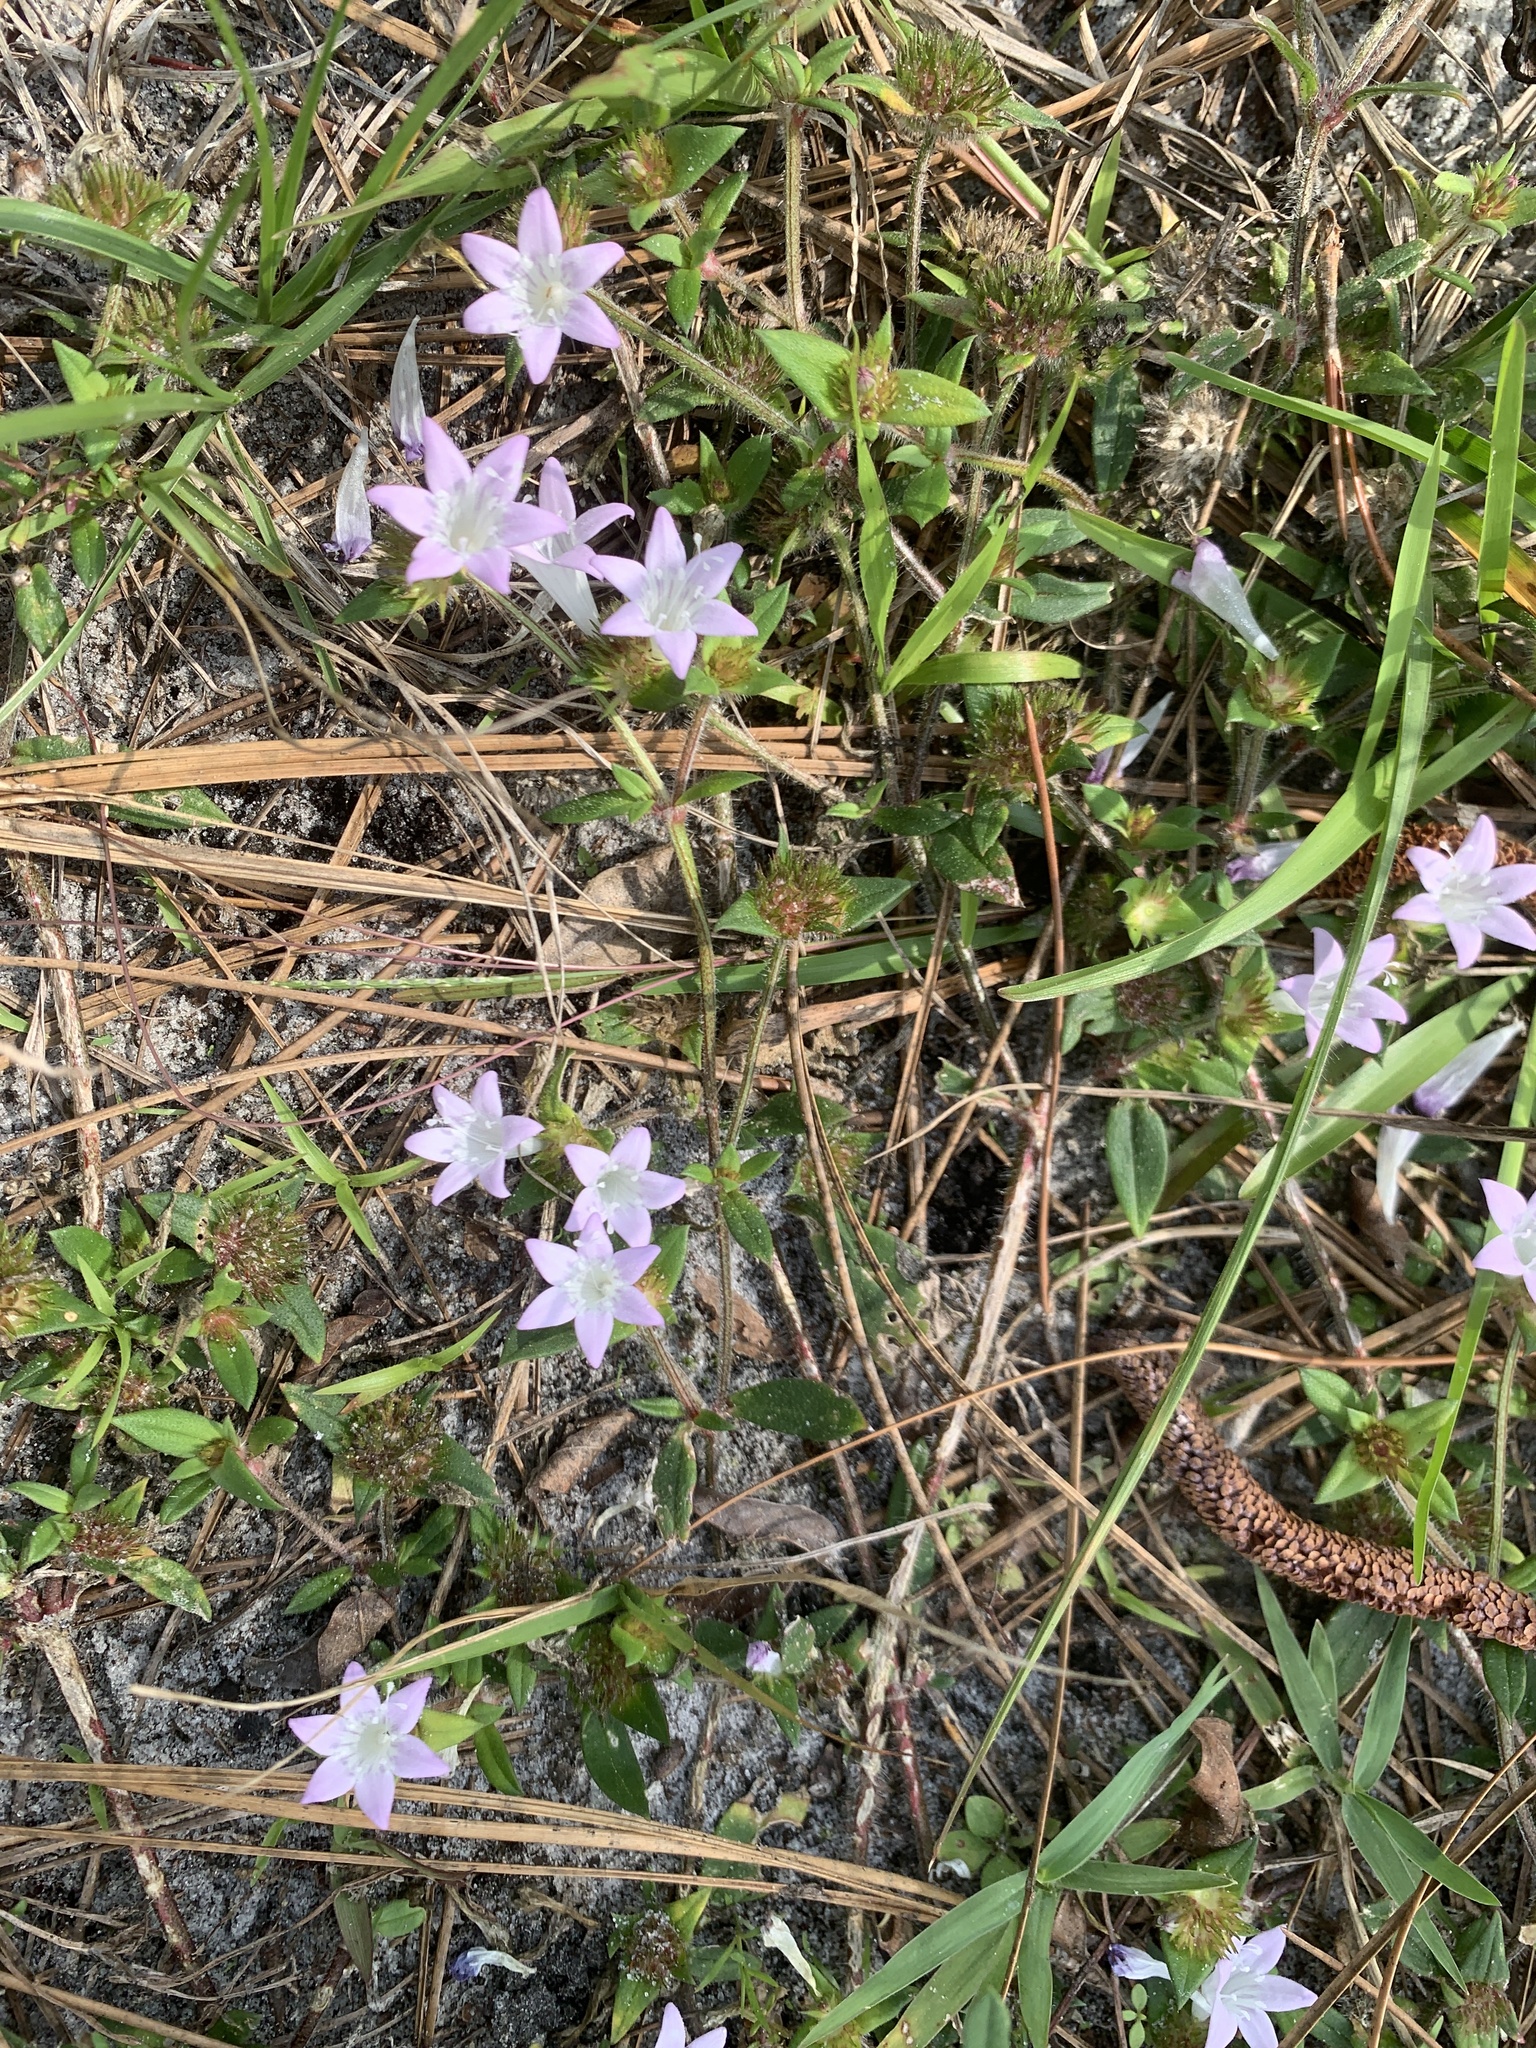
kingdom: Plantae
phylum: Tracheophyta
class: Magnoliopsida
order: Gentianales
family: Rubiaceae
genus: Richardia
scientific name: Richardia grandiflora
